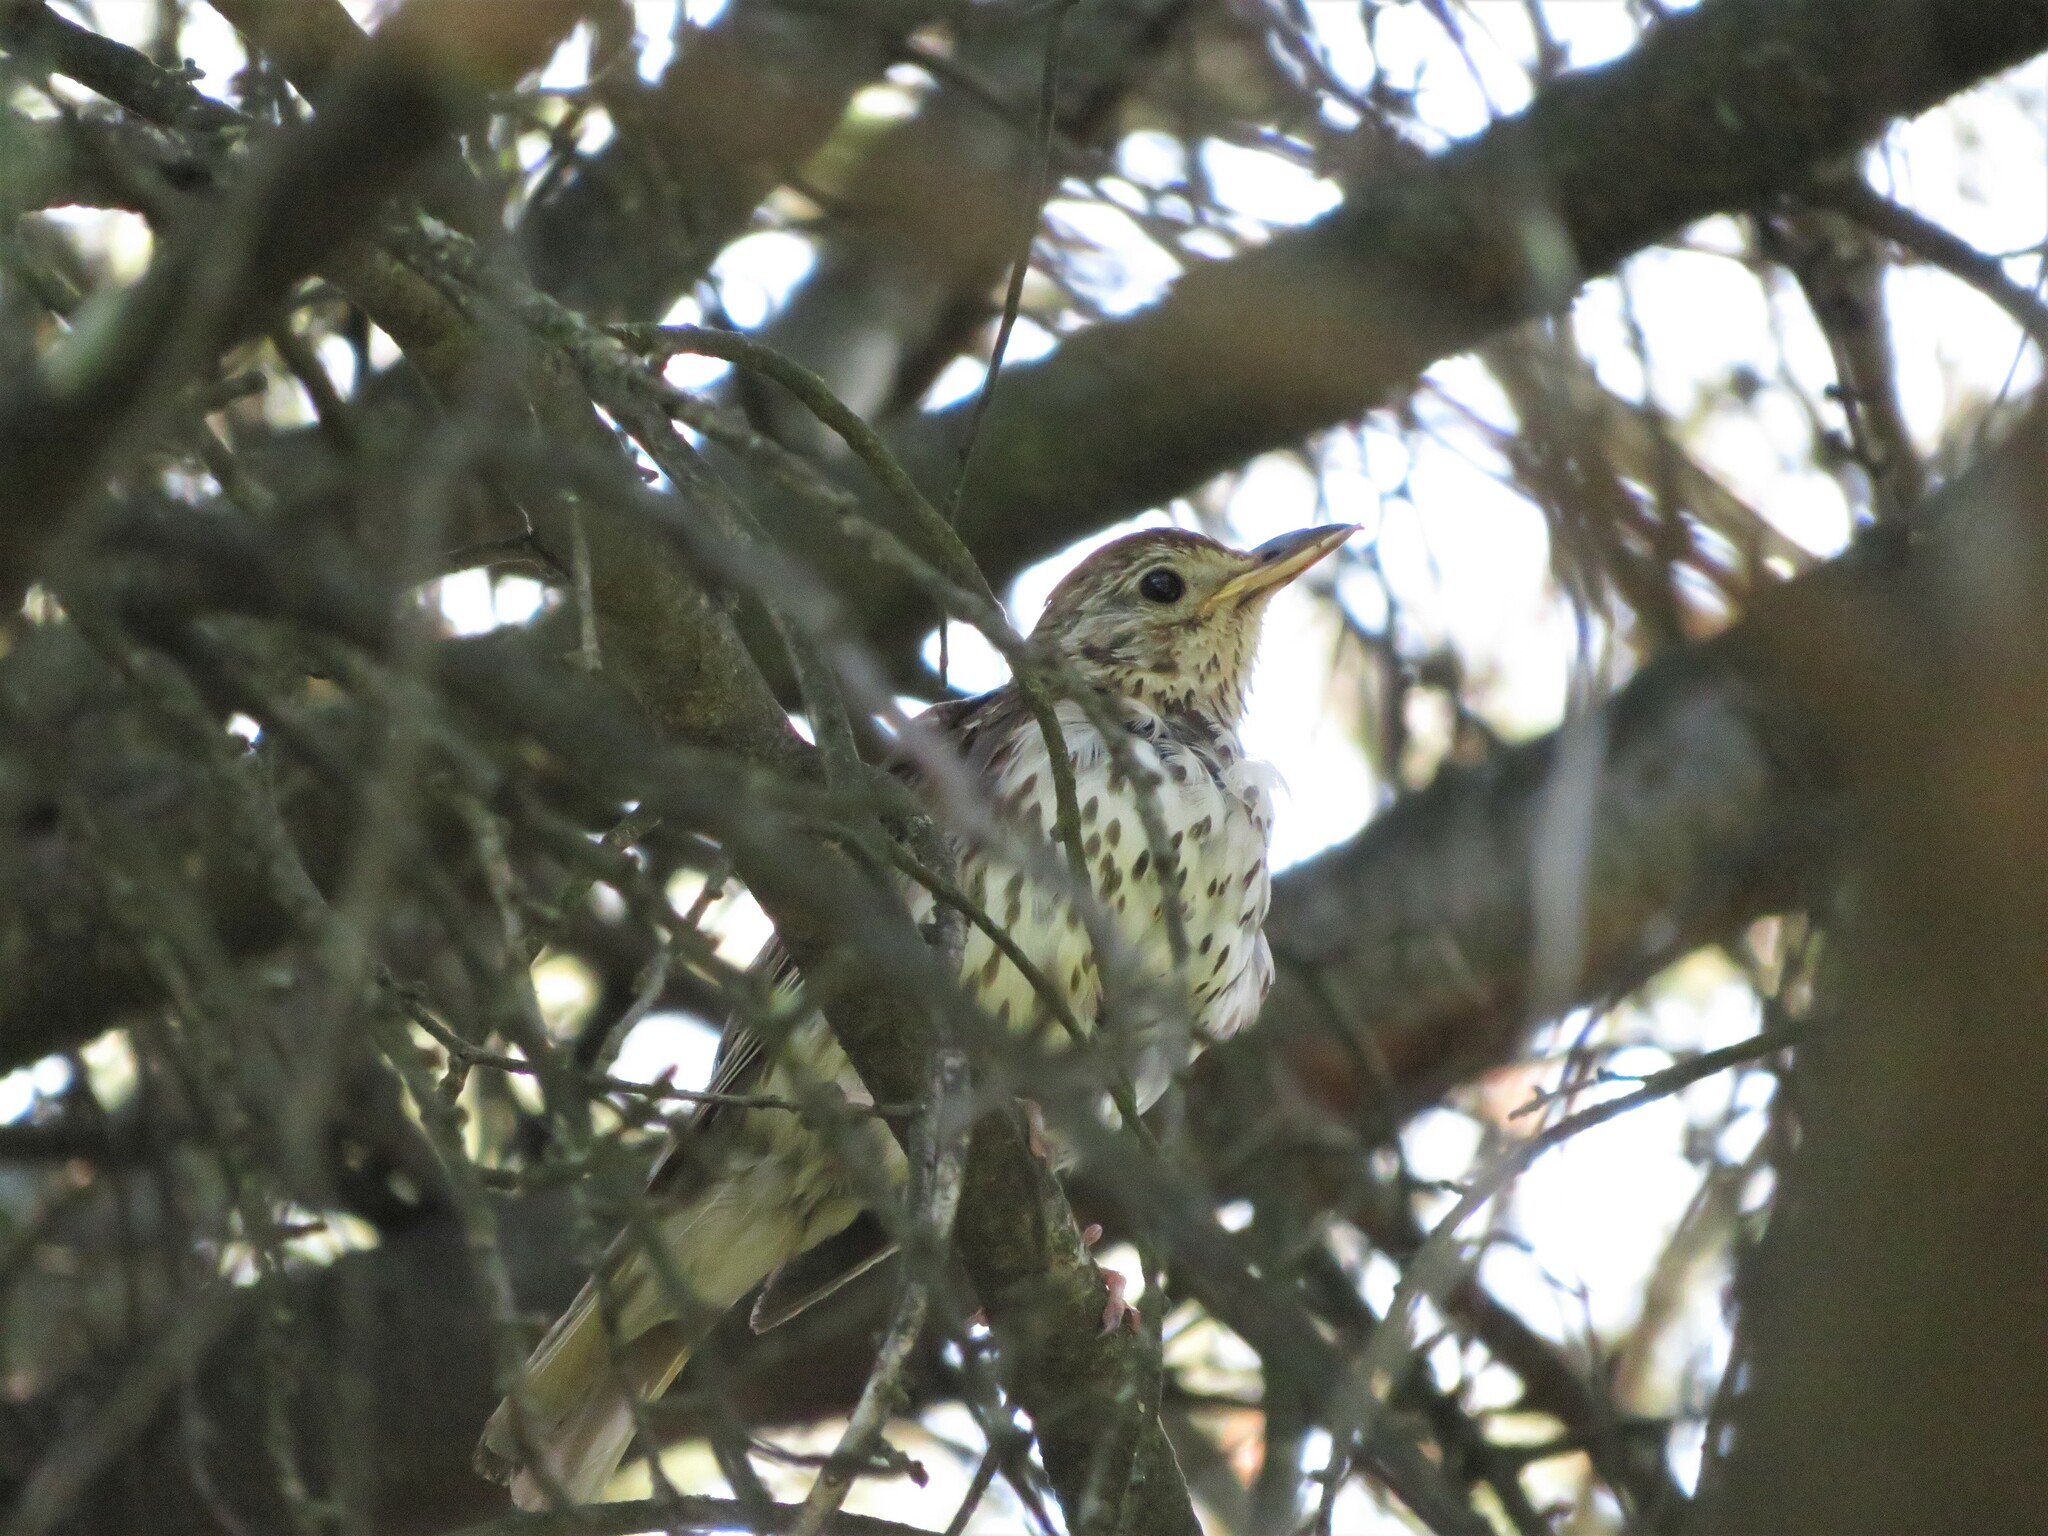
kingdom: Animalia
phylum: Chordata
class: Aves
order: Passeriformes
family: Turdidae
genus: Turdus
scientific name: Turdus philomelos
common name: Song thrush
